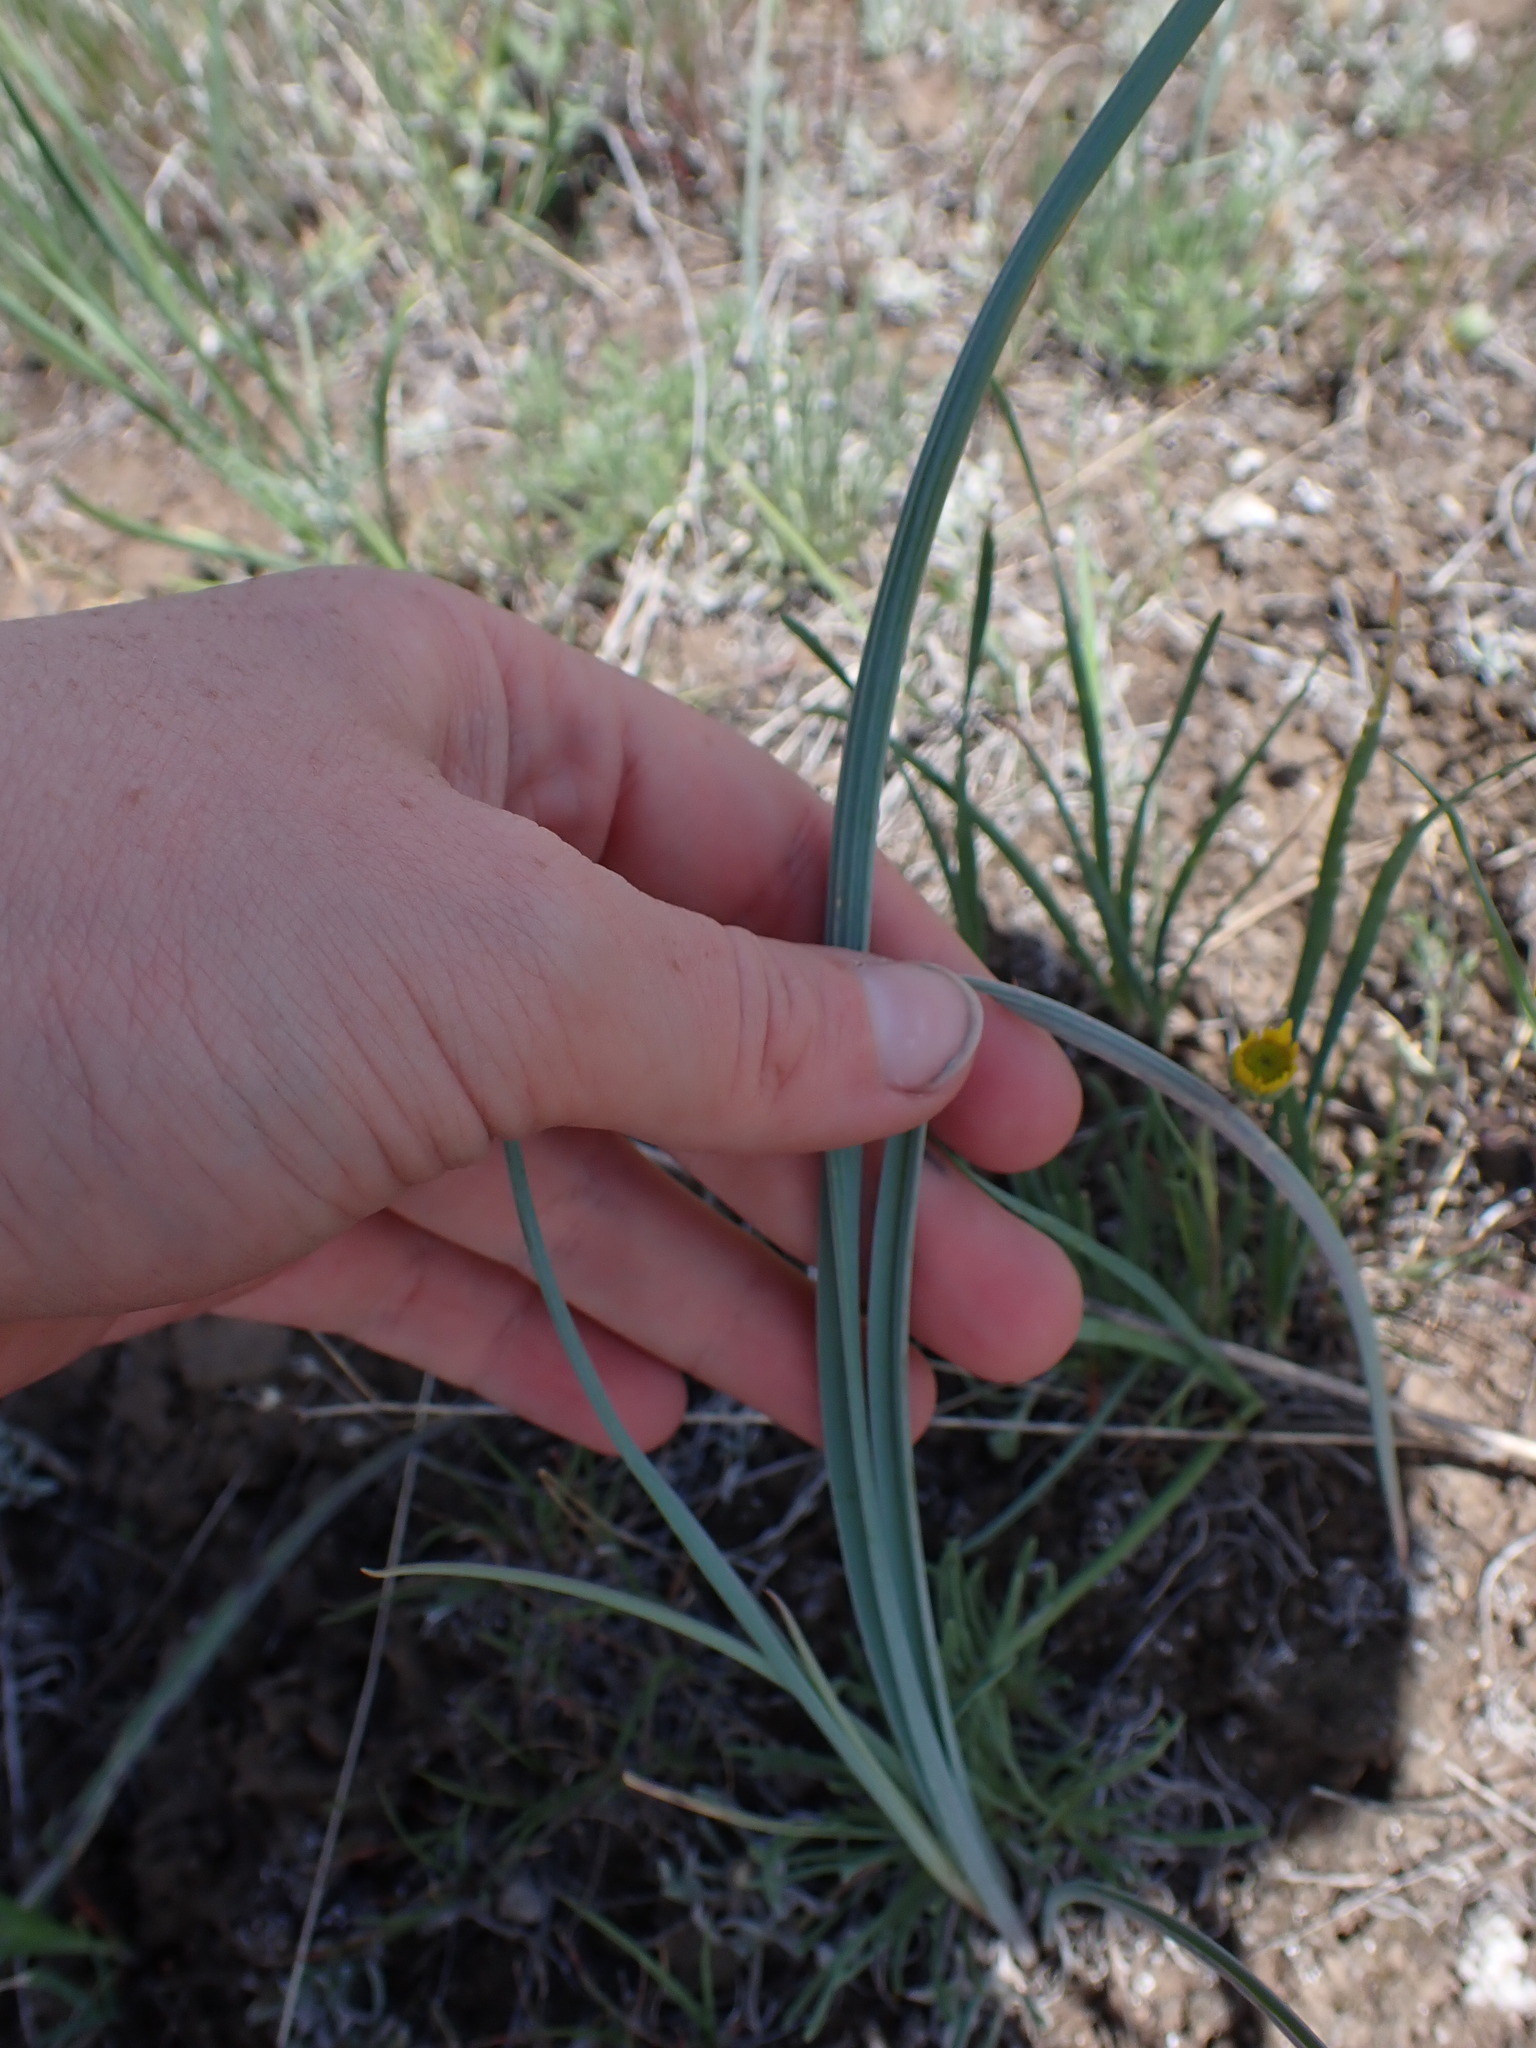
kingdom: Plantae
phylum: Tracheophyta
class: Liliopsida
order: Liliales
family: Liliaceae
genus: Calochortus
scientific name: Calochortus macrocarpus
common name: Green-band mariposa lily
